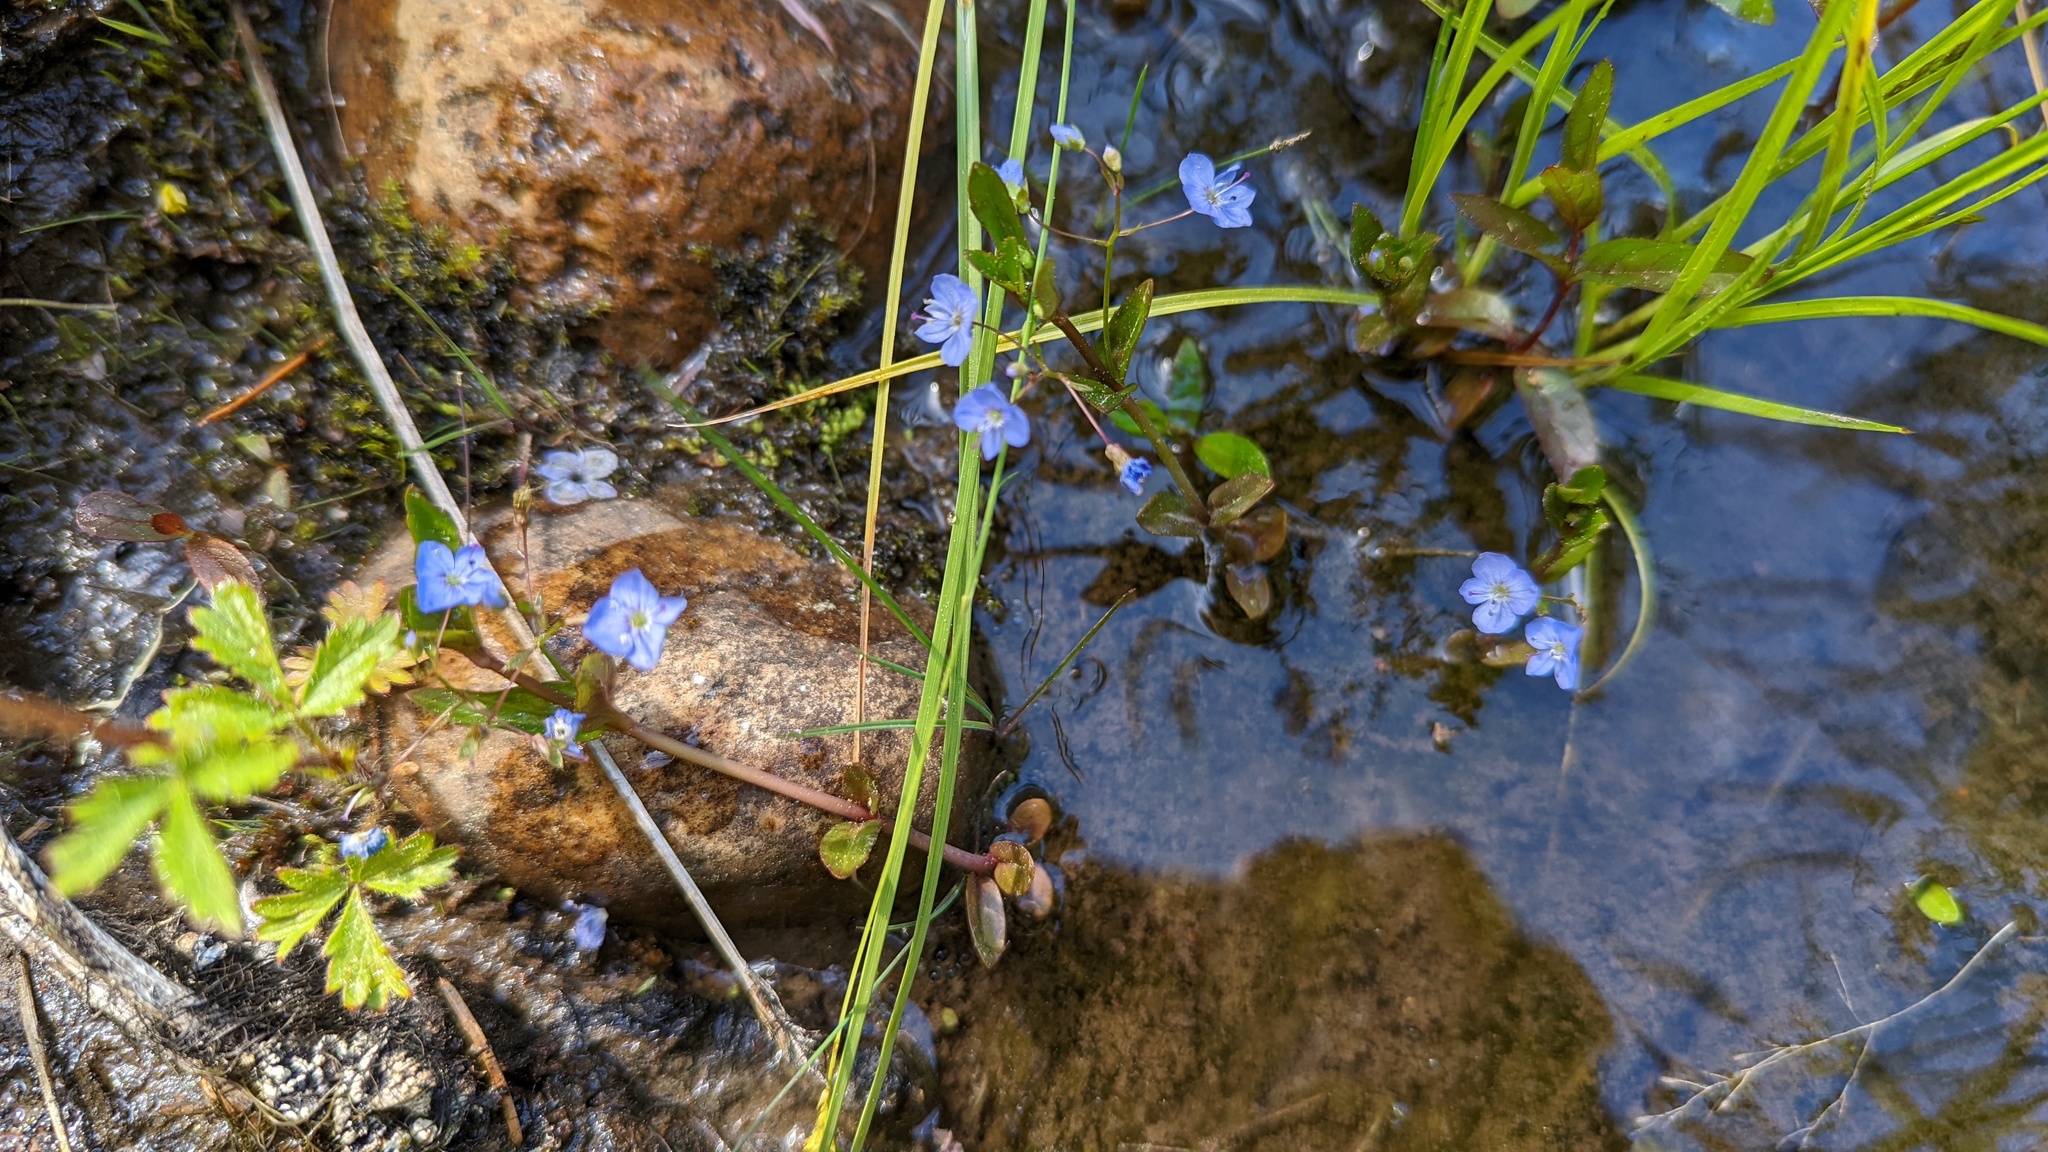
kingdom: Plantae
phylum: Tracheophyta
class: Magnoliopsida
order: Lamiales
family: Plantaginaceae
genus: Veronica
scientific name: Veronica americana
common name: American brooklime
